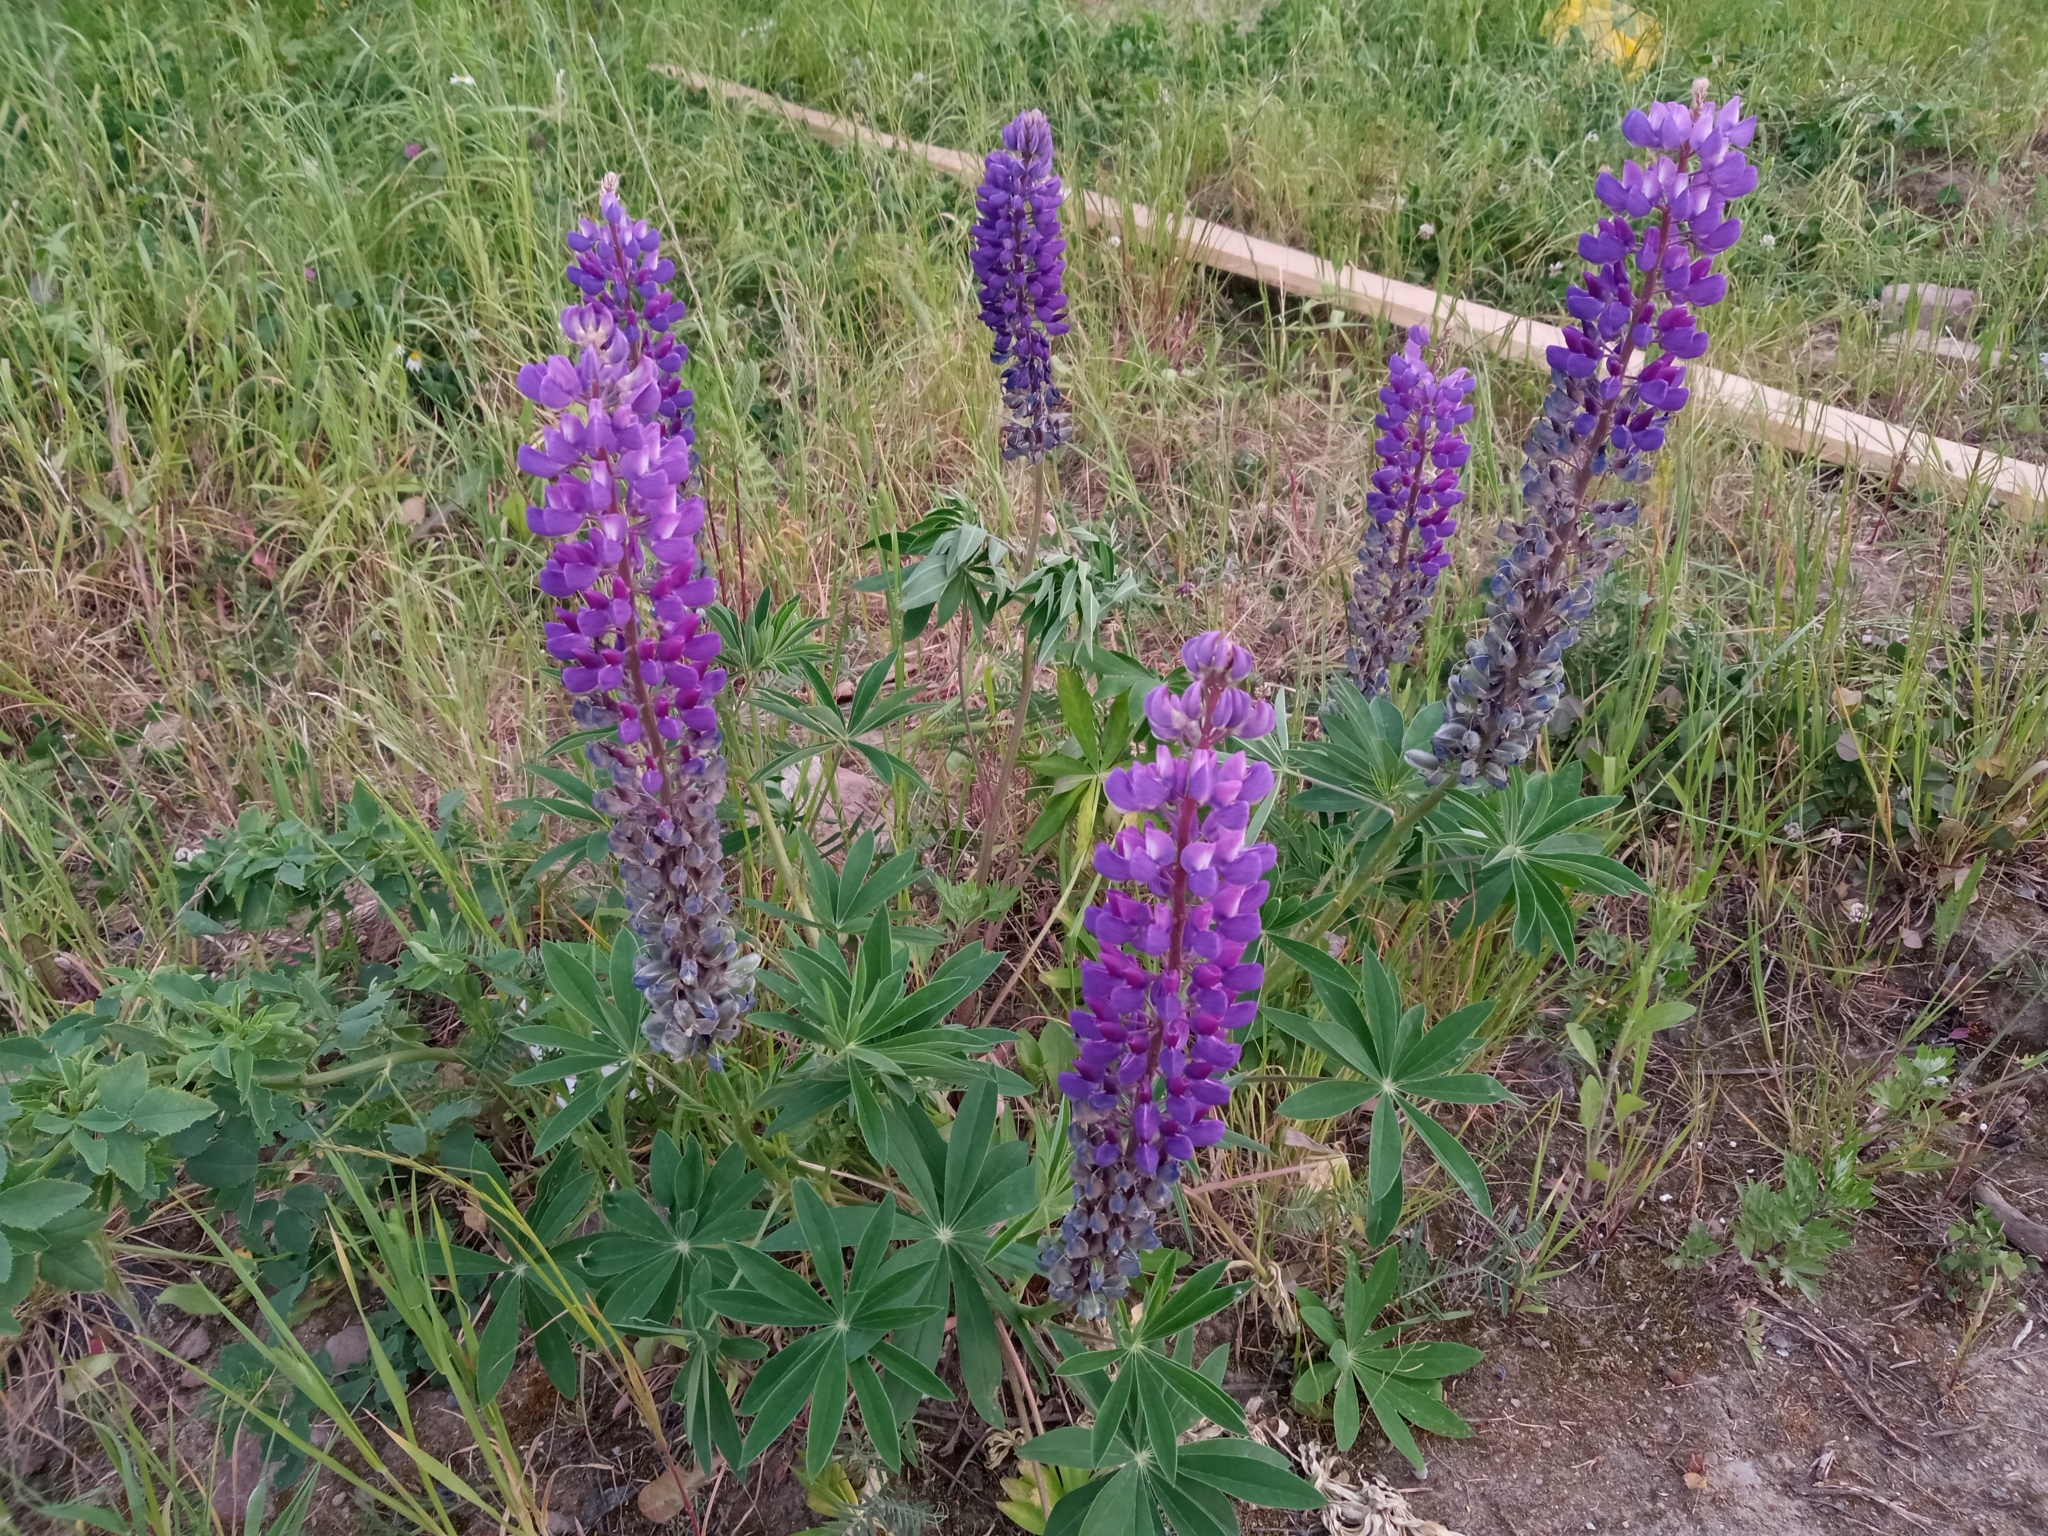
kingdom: Plantae
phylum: Tracheophyta
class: Magnoliopsida
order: Fabales
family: Fabaceae
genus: Lupinus
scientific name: Lupinus polyphyllus
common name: Garden lupin
